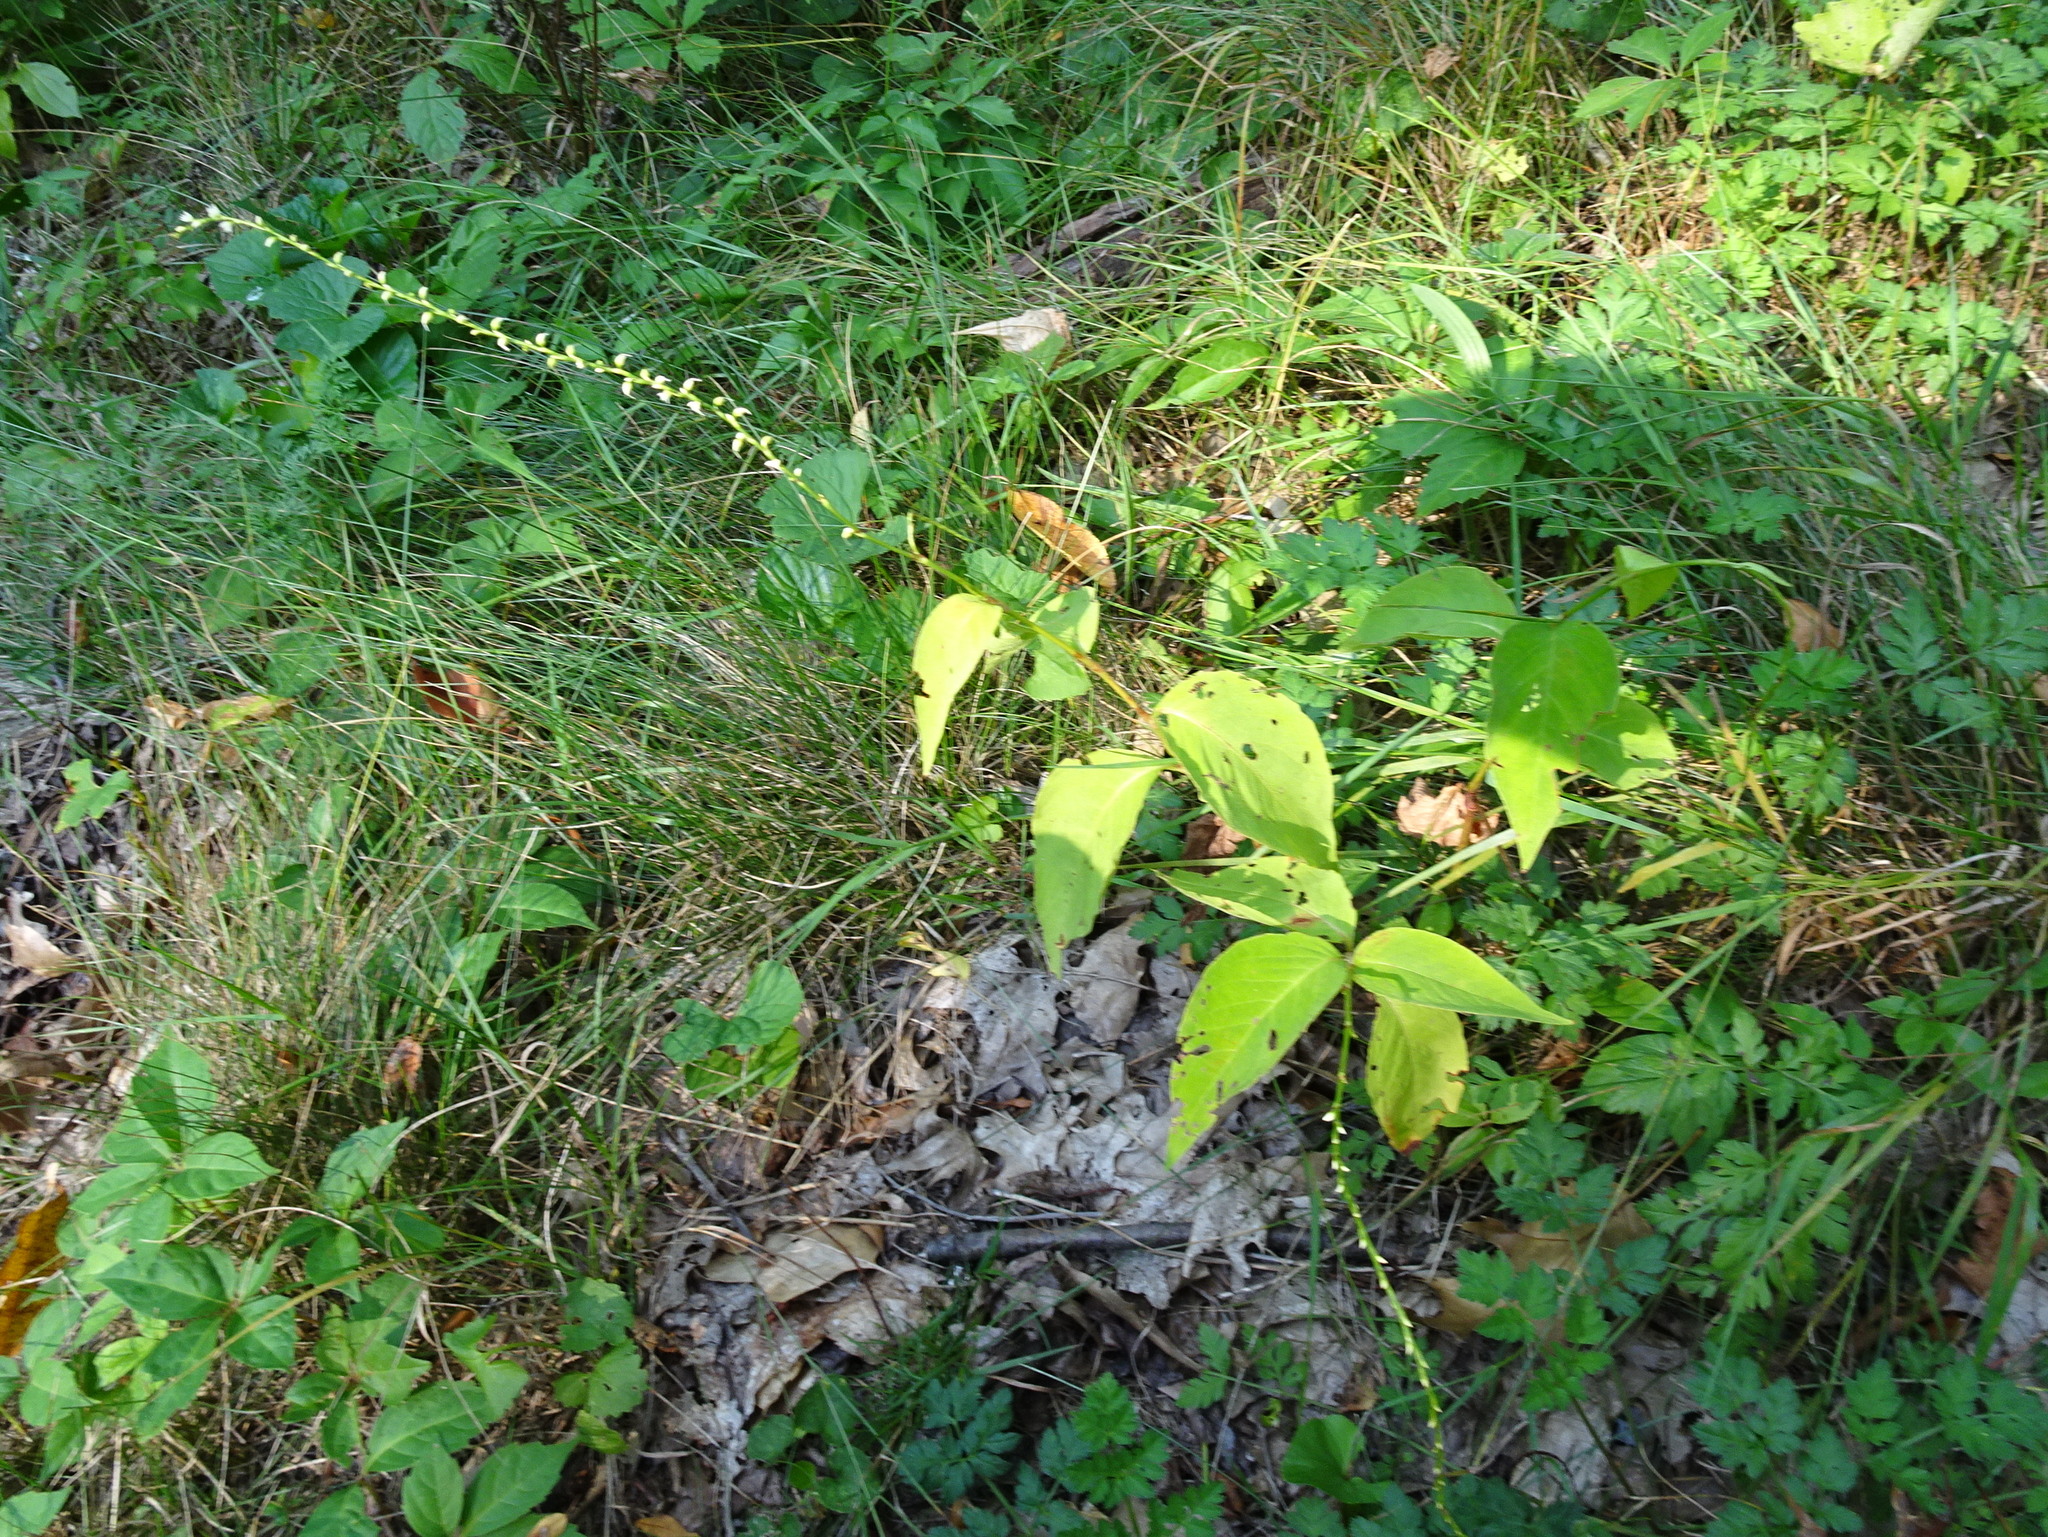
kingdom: Plantae
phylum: Tracheophyta
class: Magnoliopsida
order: Caryophyllales
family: Polygonaceae
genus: Persicaria
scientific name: Persicaria virginiana
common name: Jumpseed
